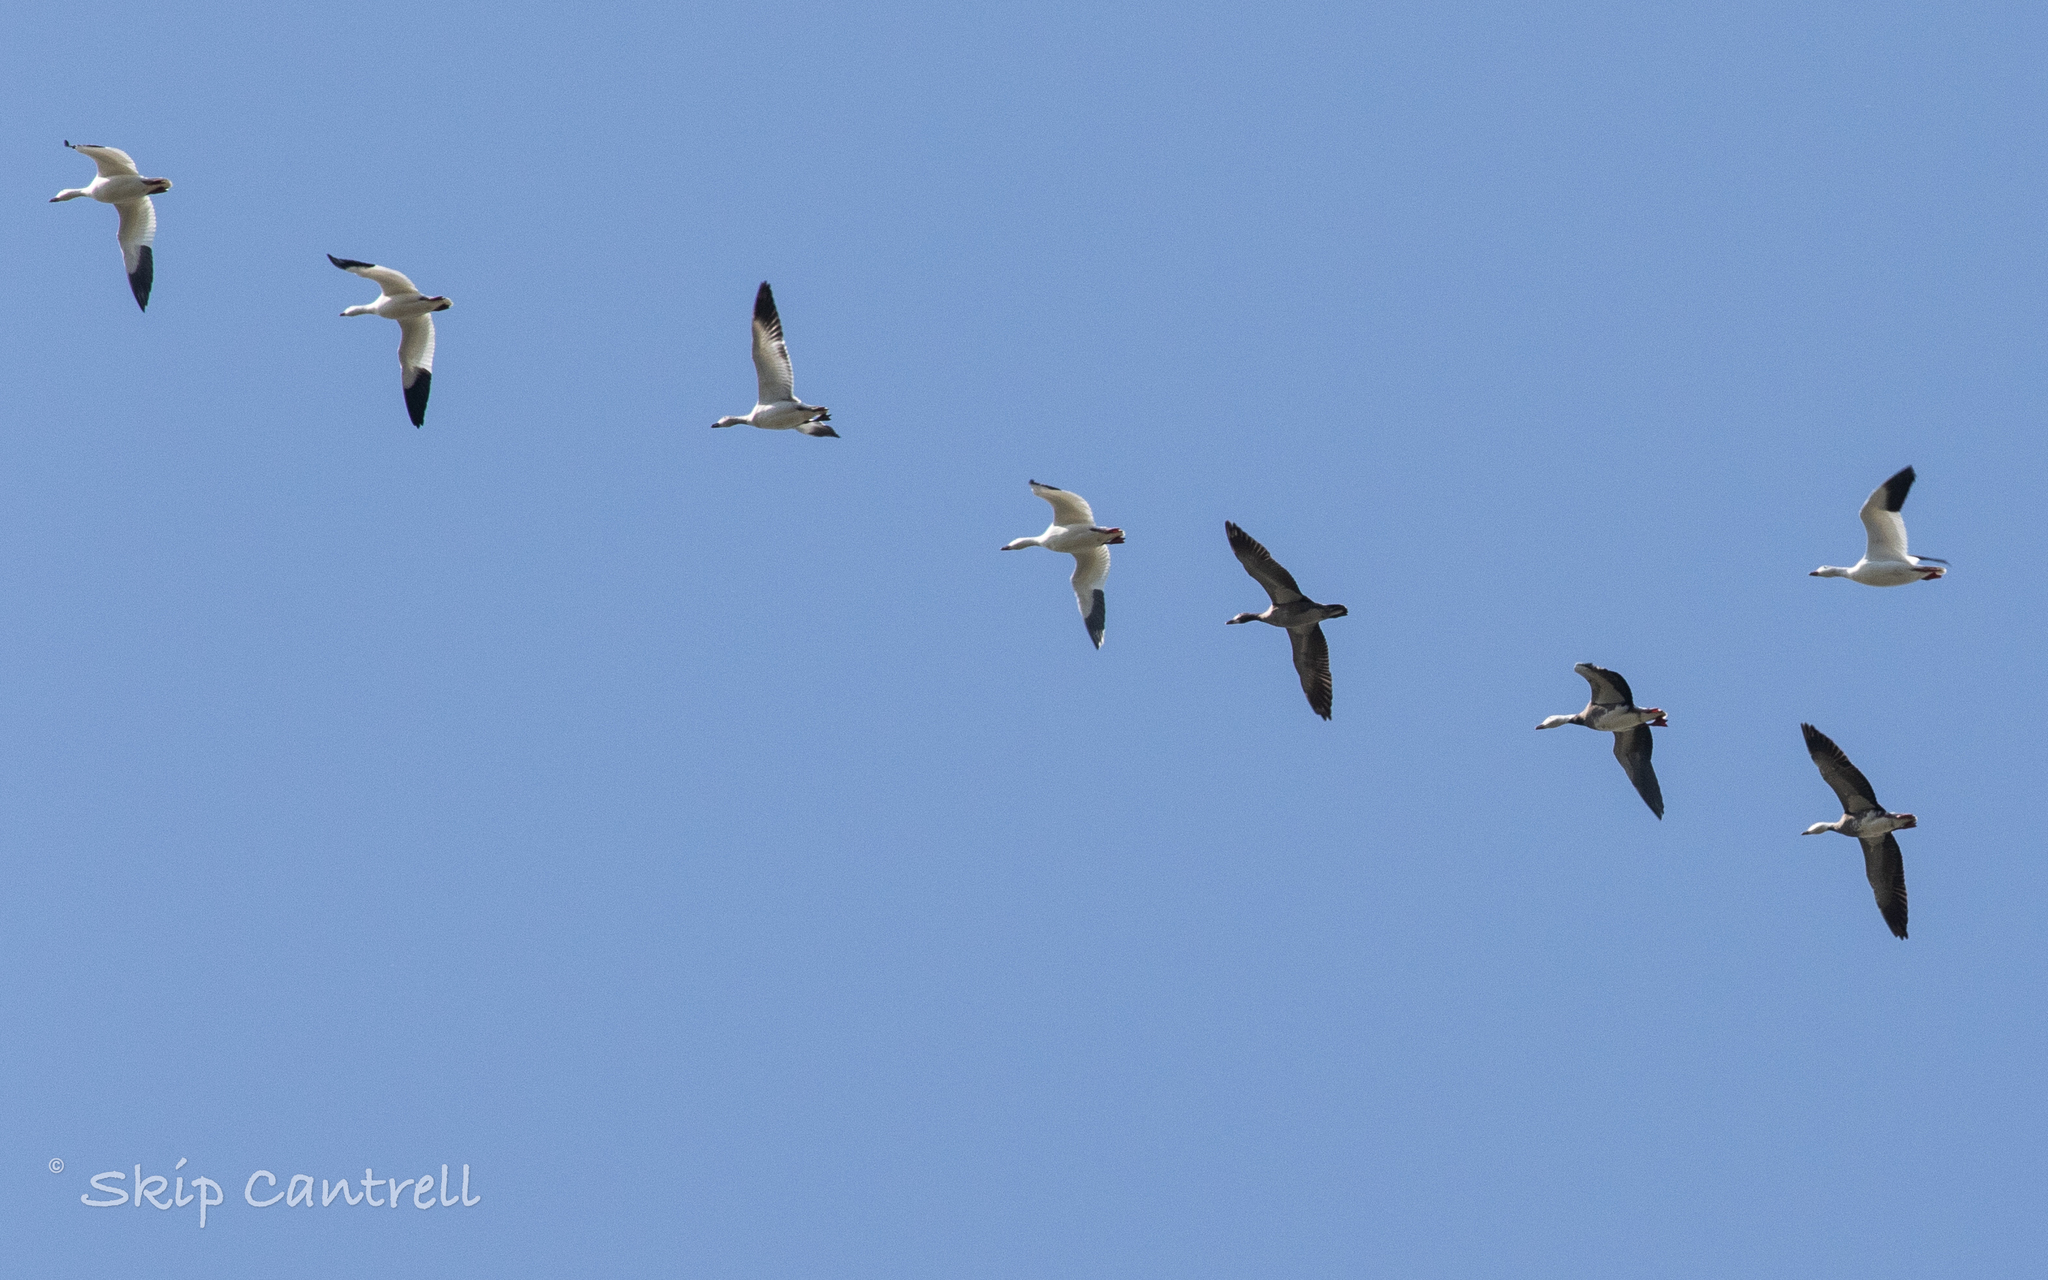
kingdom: Animalia
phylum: Chordata
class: Aves
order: Anseriformes
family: Anatidae
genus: Anser
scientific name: Anser caerulescens
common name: Snow goose
